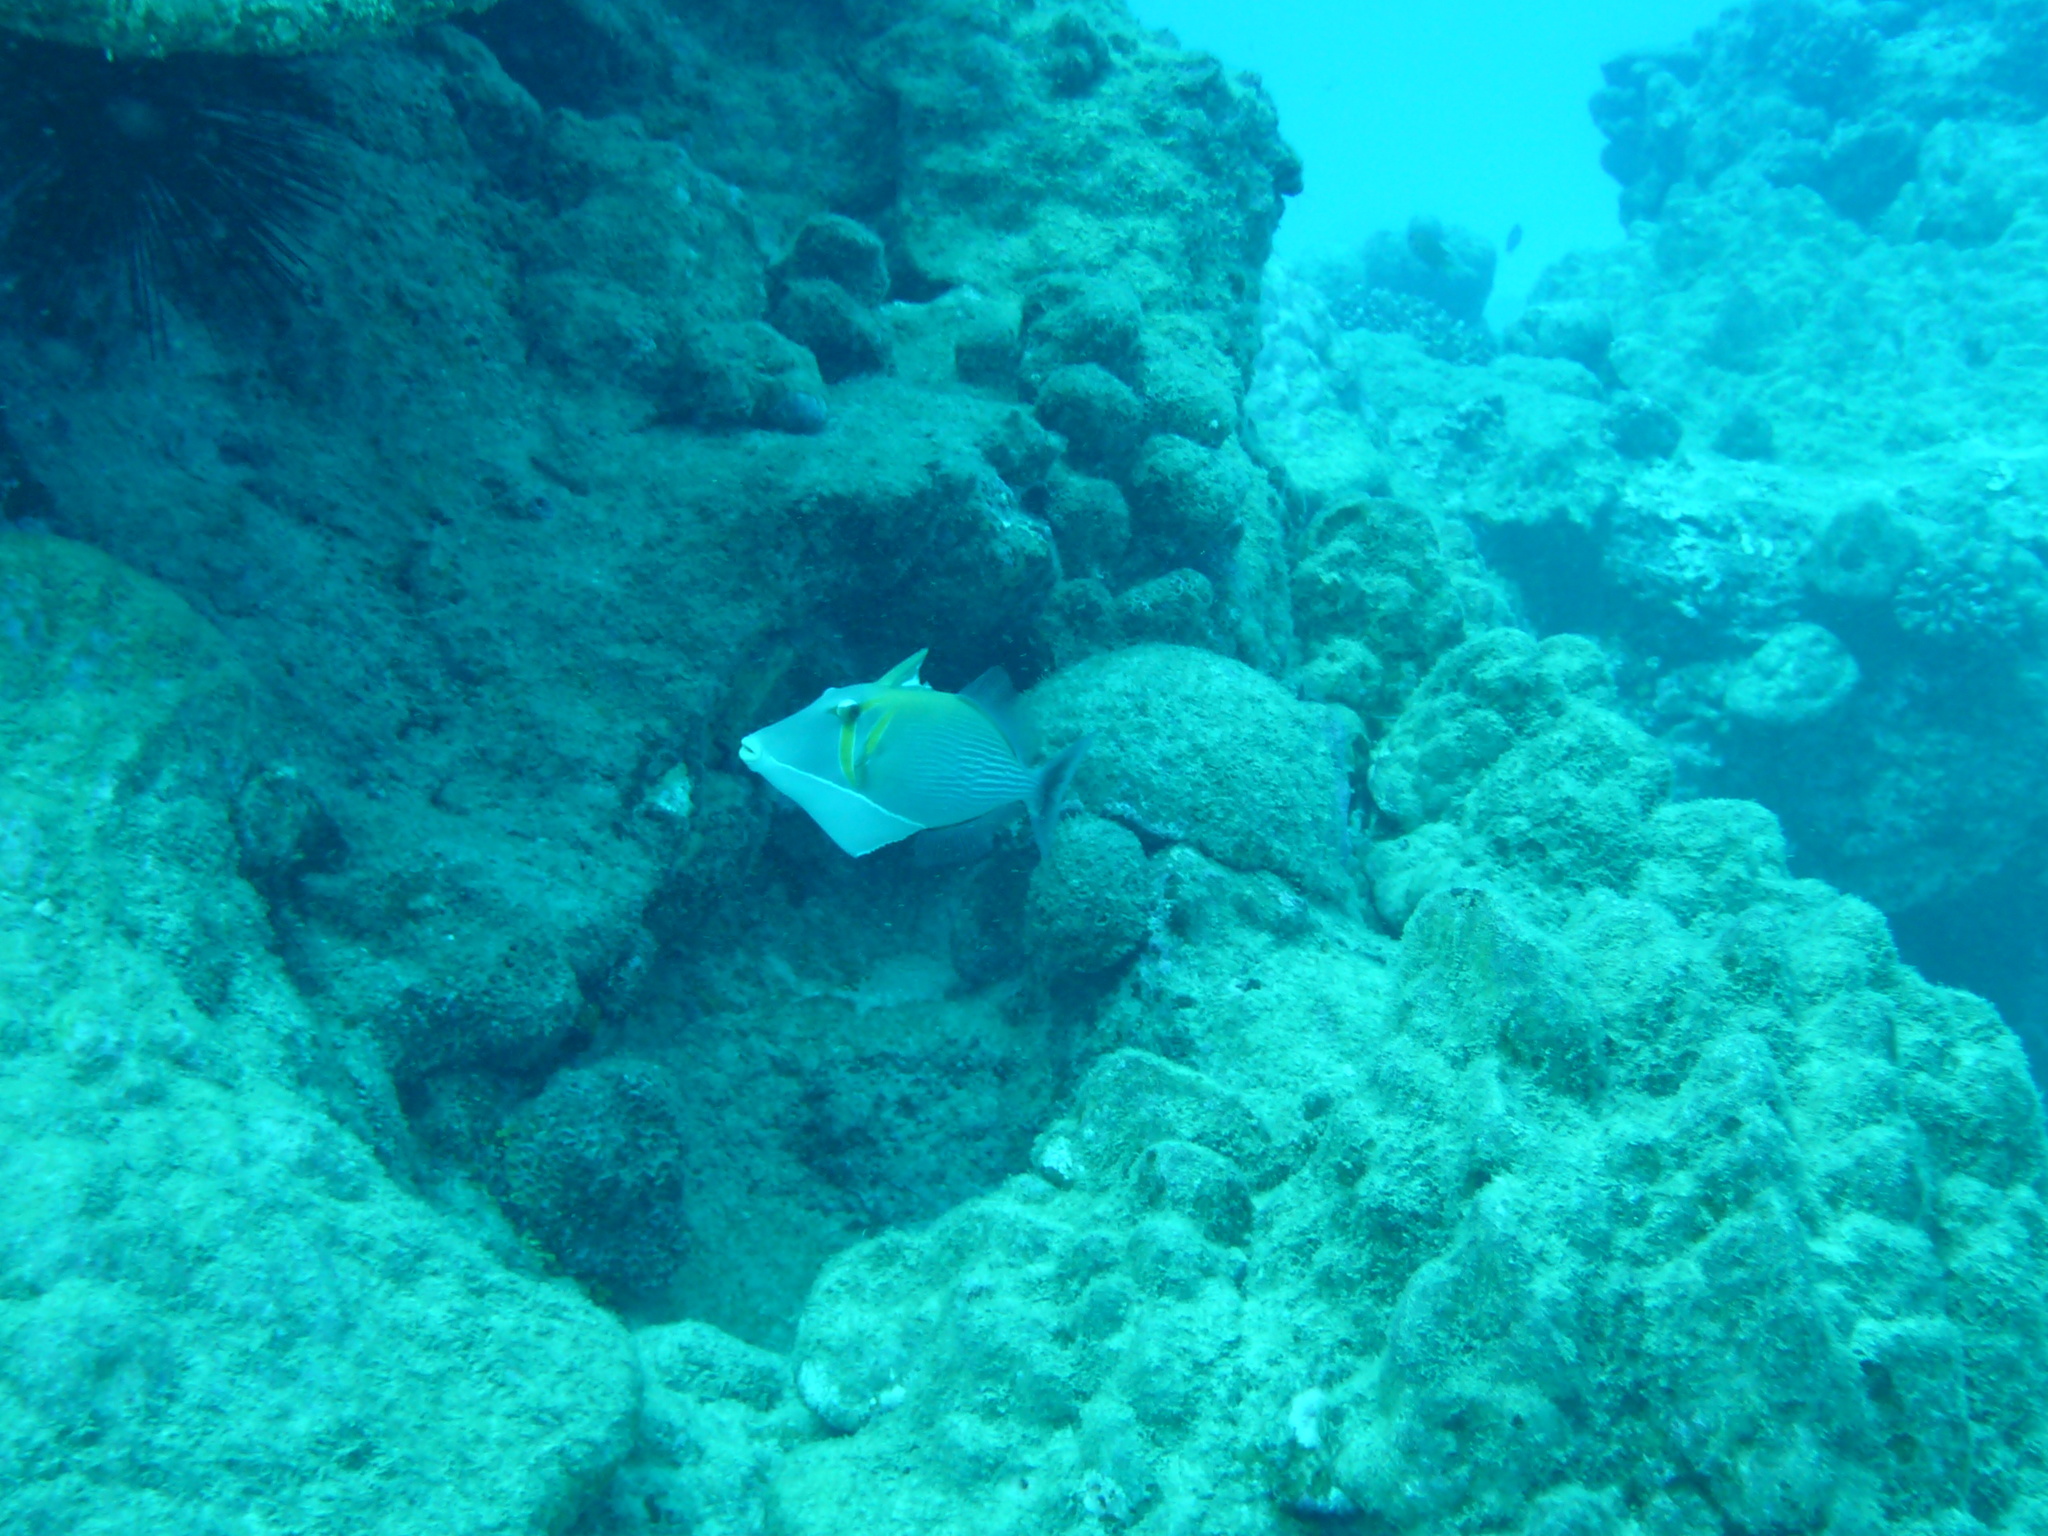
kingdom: Animalia
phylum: Chordata
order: Tetraodontiformes
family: Balistidae
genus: Sufflamen
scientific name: Sufflamen bursa
